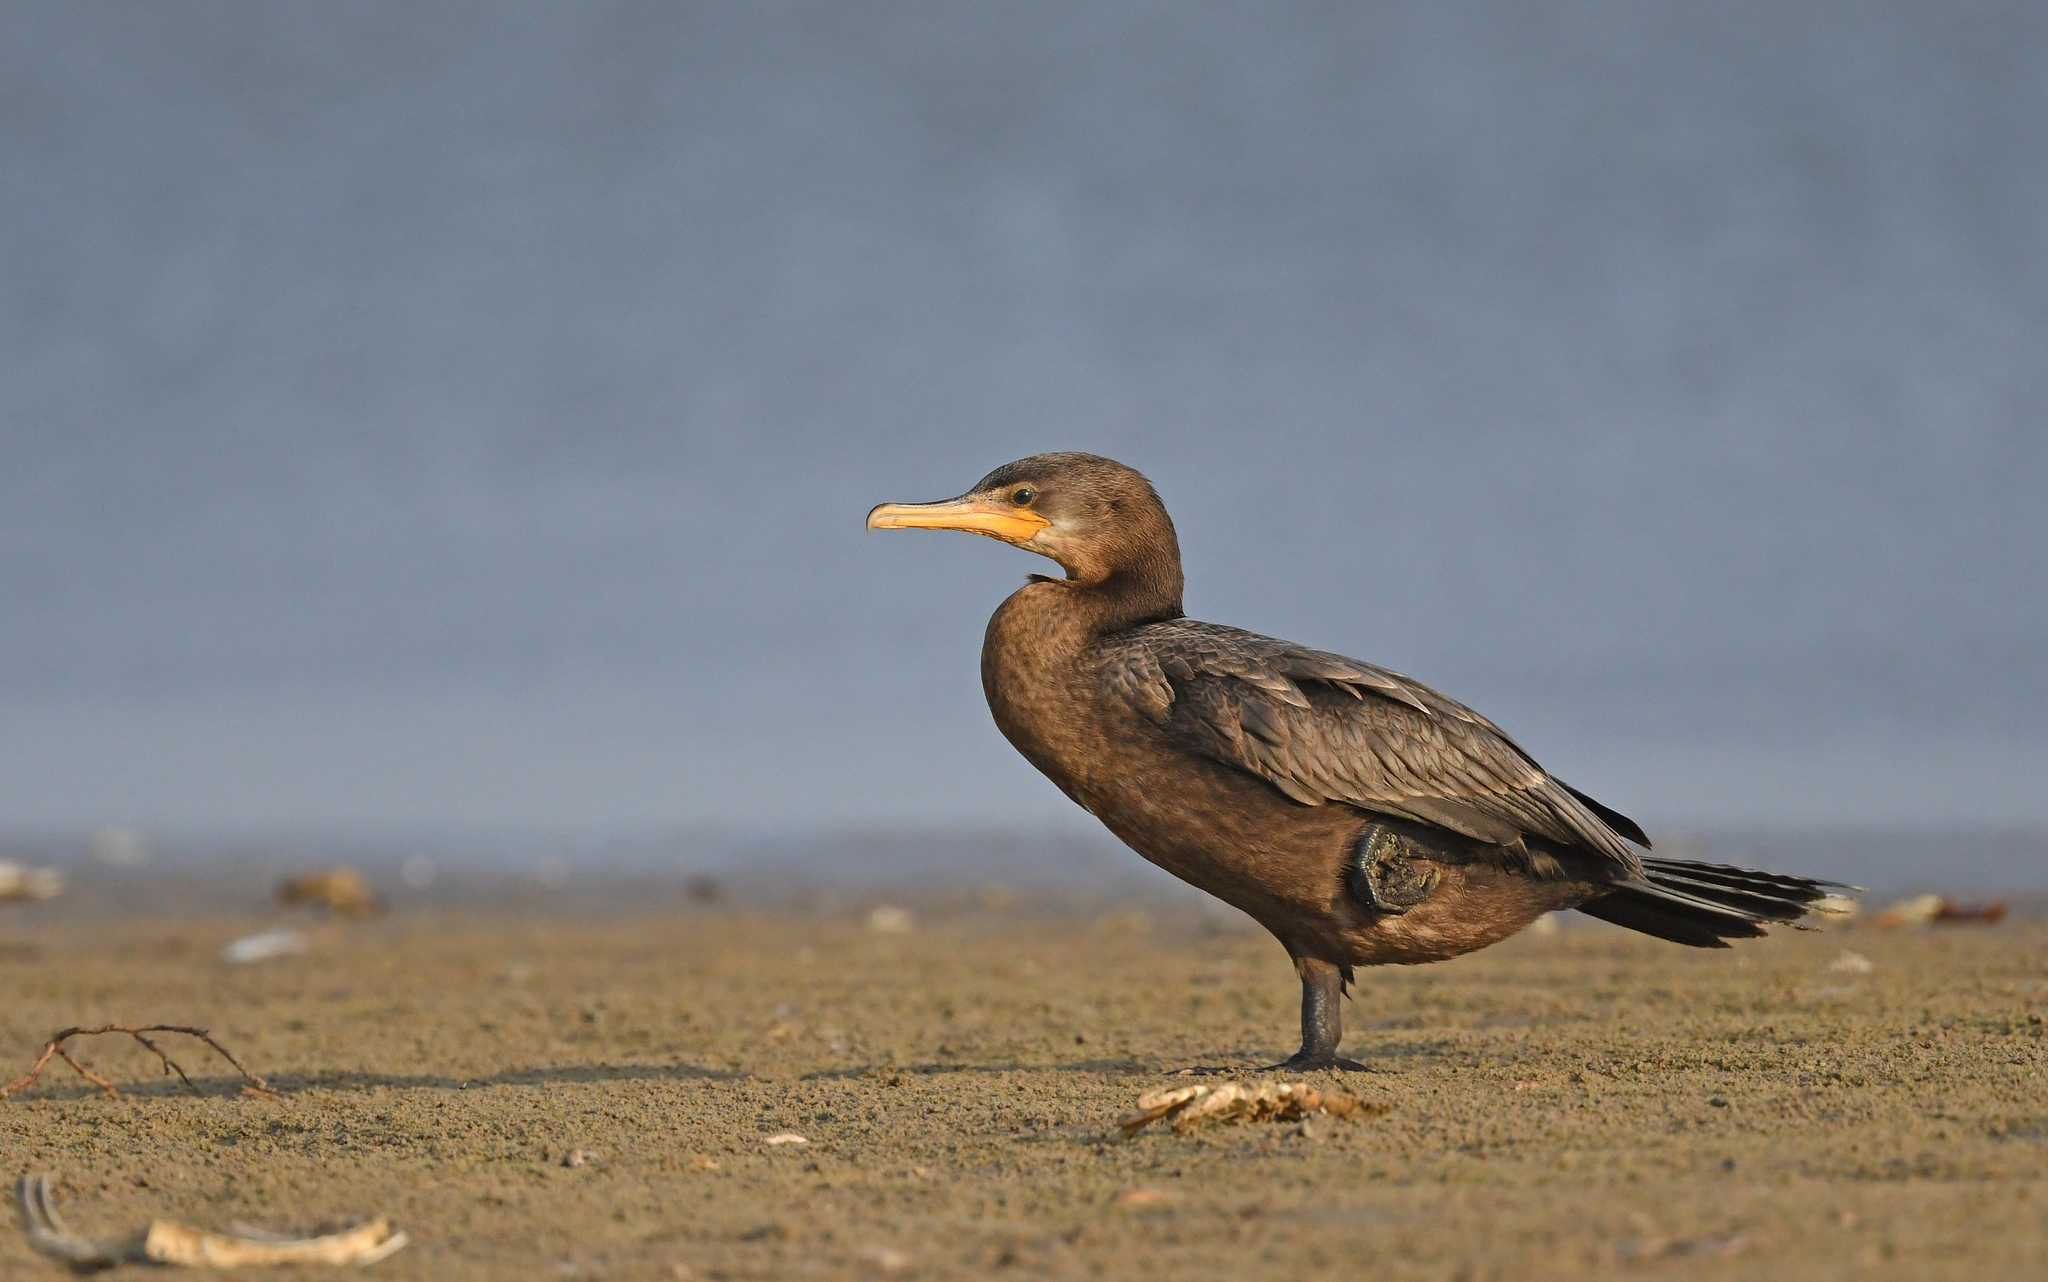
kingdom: Animalia
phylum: Chordata
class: Aves
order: Suliformes
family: Phalacrocoracidae
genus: Phalacrocorax
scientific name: Phalacrocorax brasilianus
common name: Neotropic cormorant
